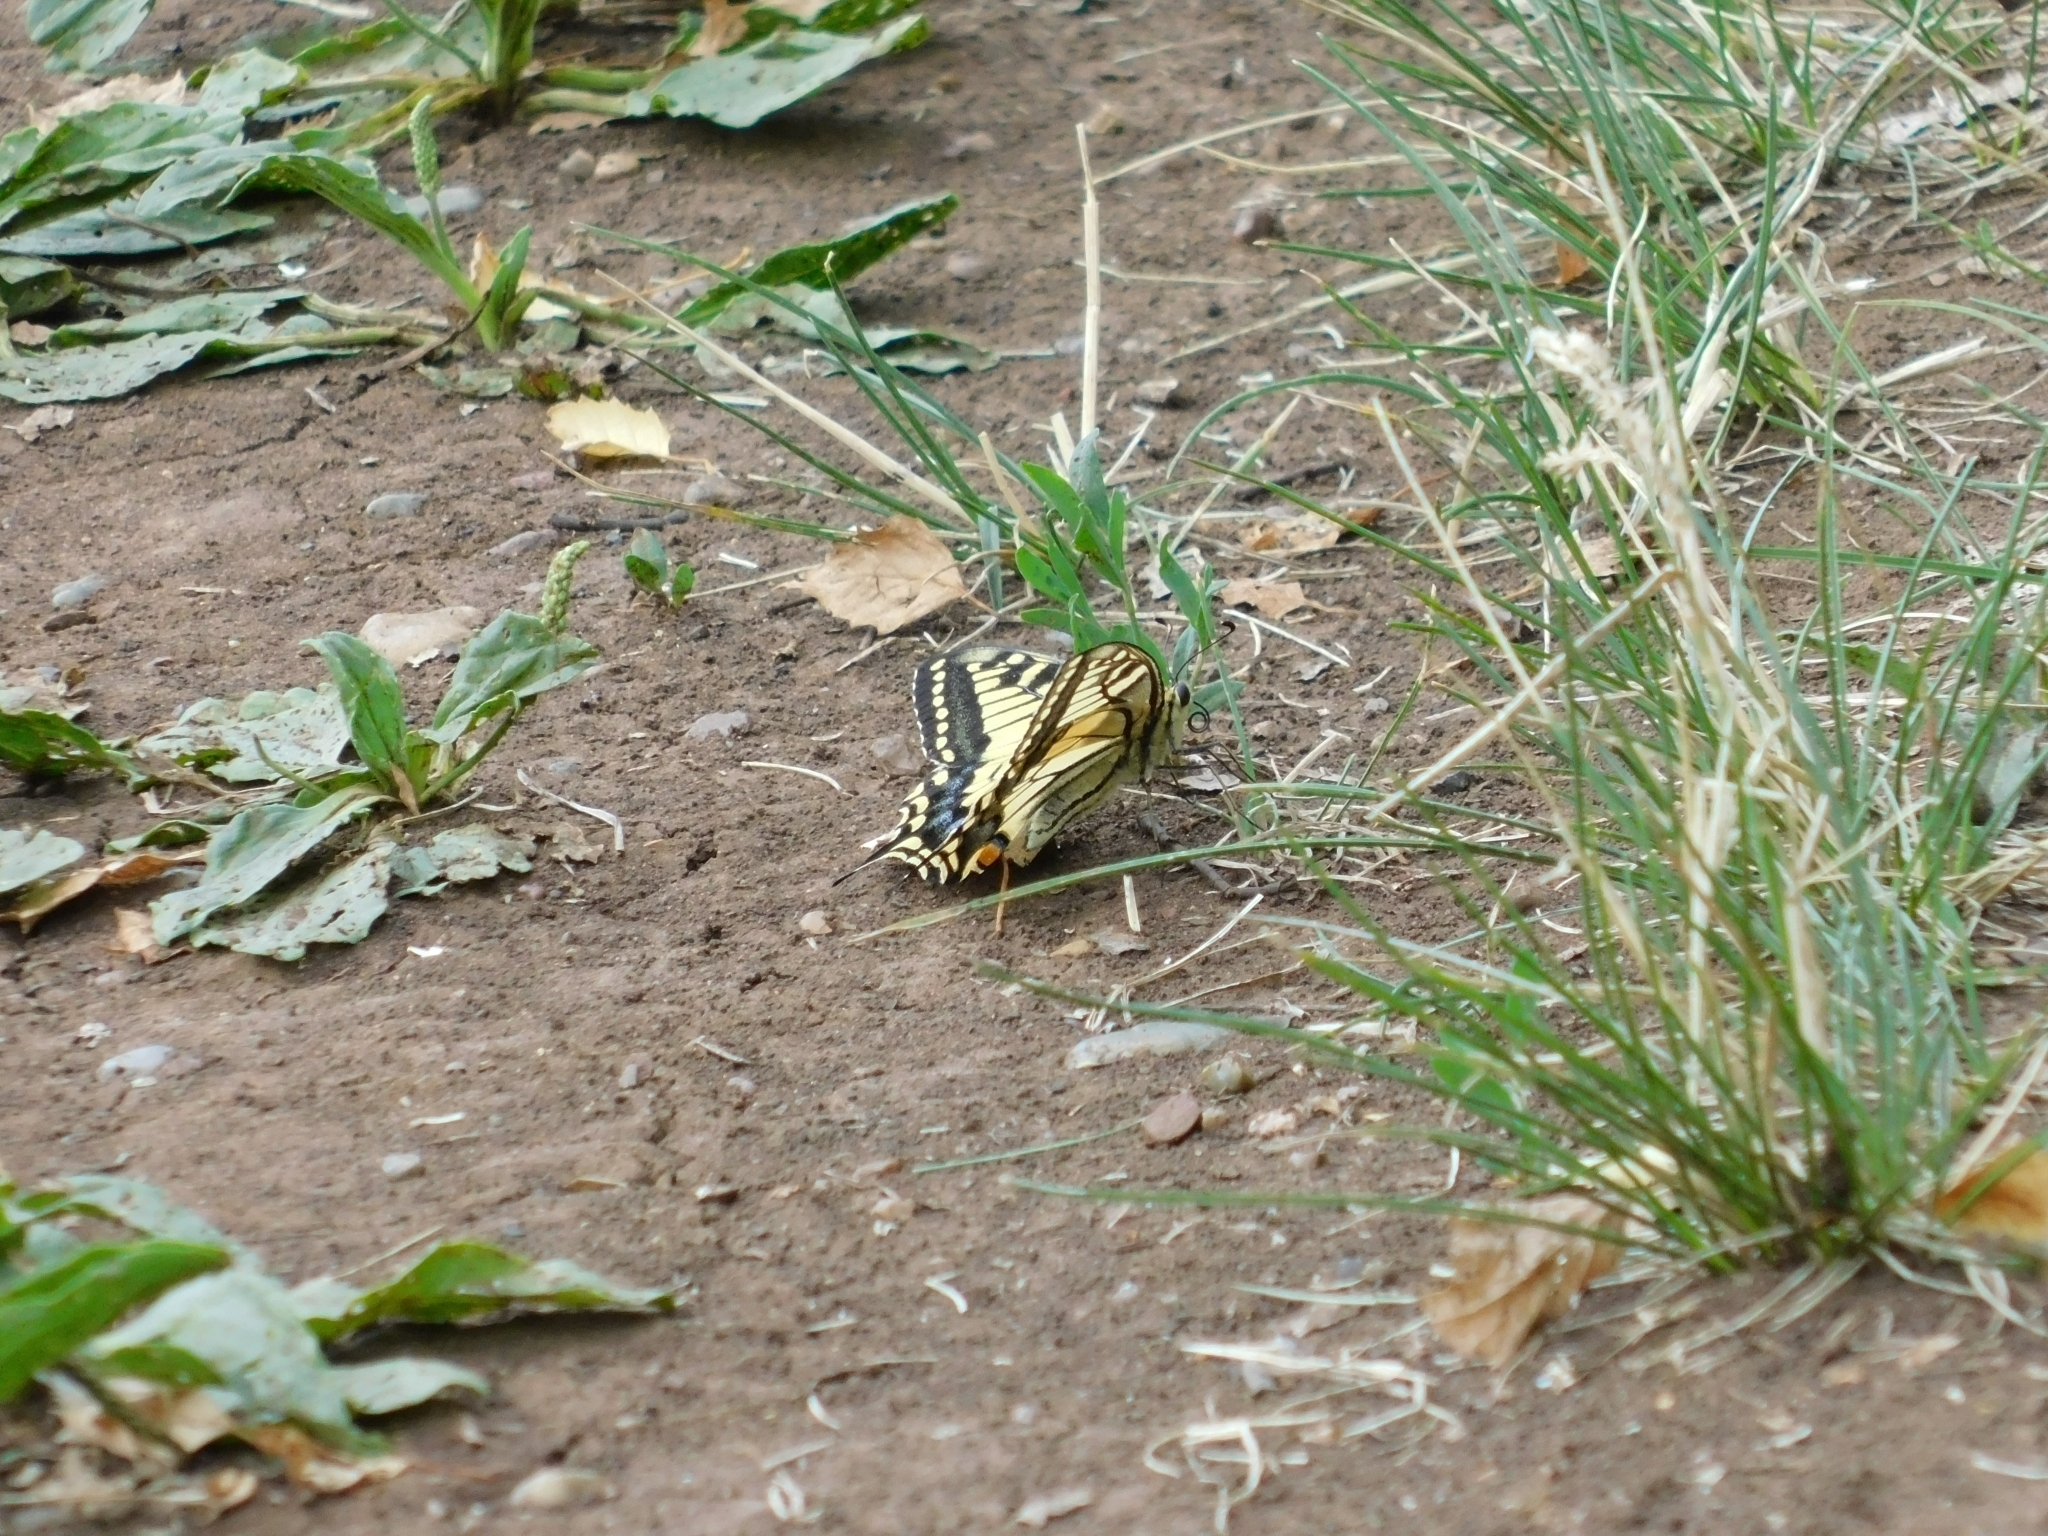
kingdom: Animalia
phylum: Arthropoda
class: Insecta
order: Lepidoptera
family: Papilionidae
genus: Papilio
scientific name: Papilio machaon
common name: Swallowtail
